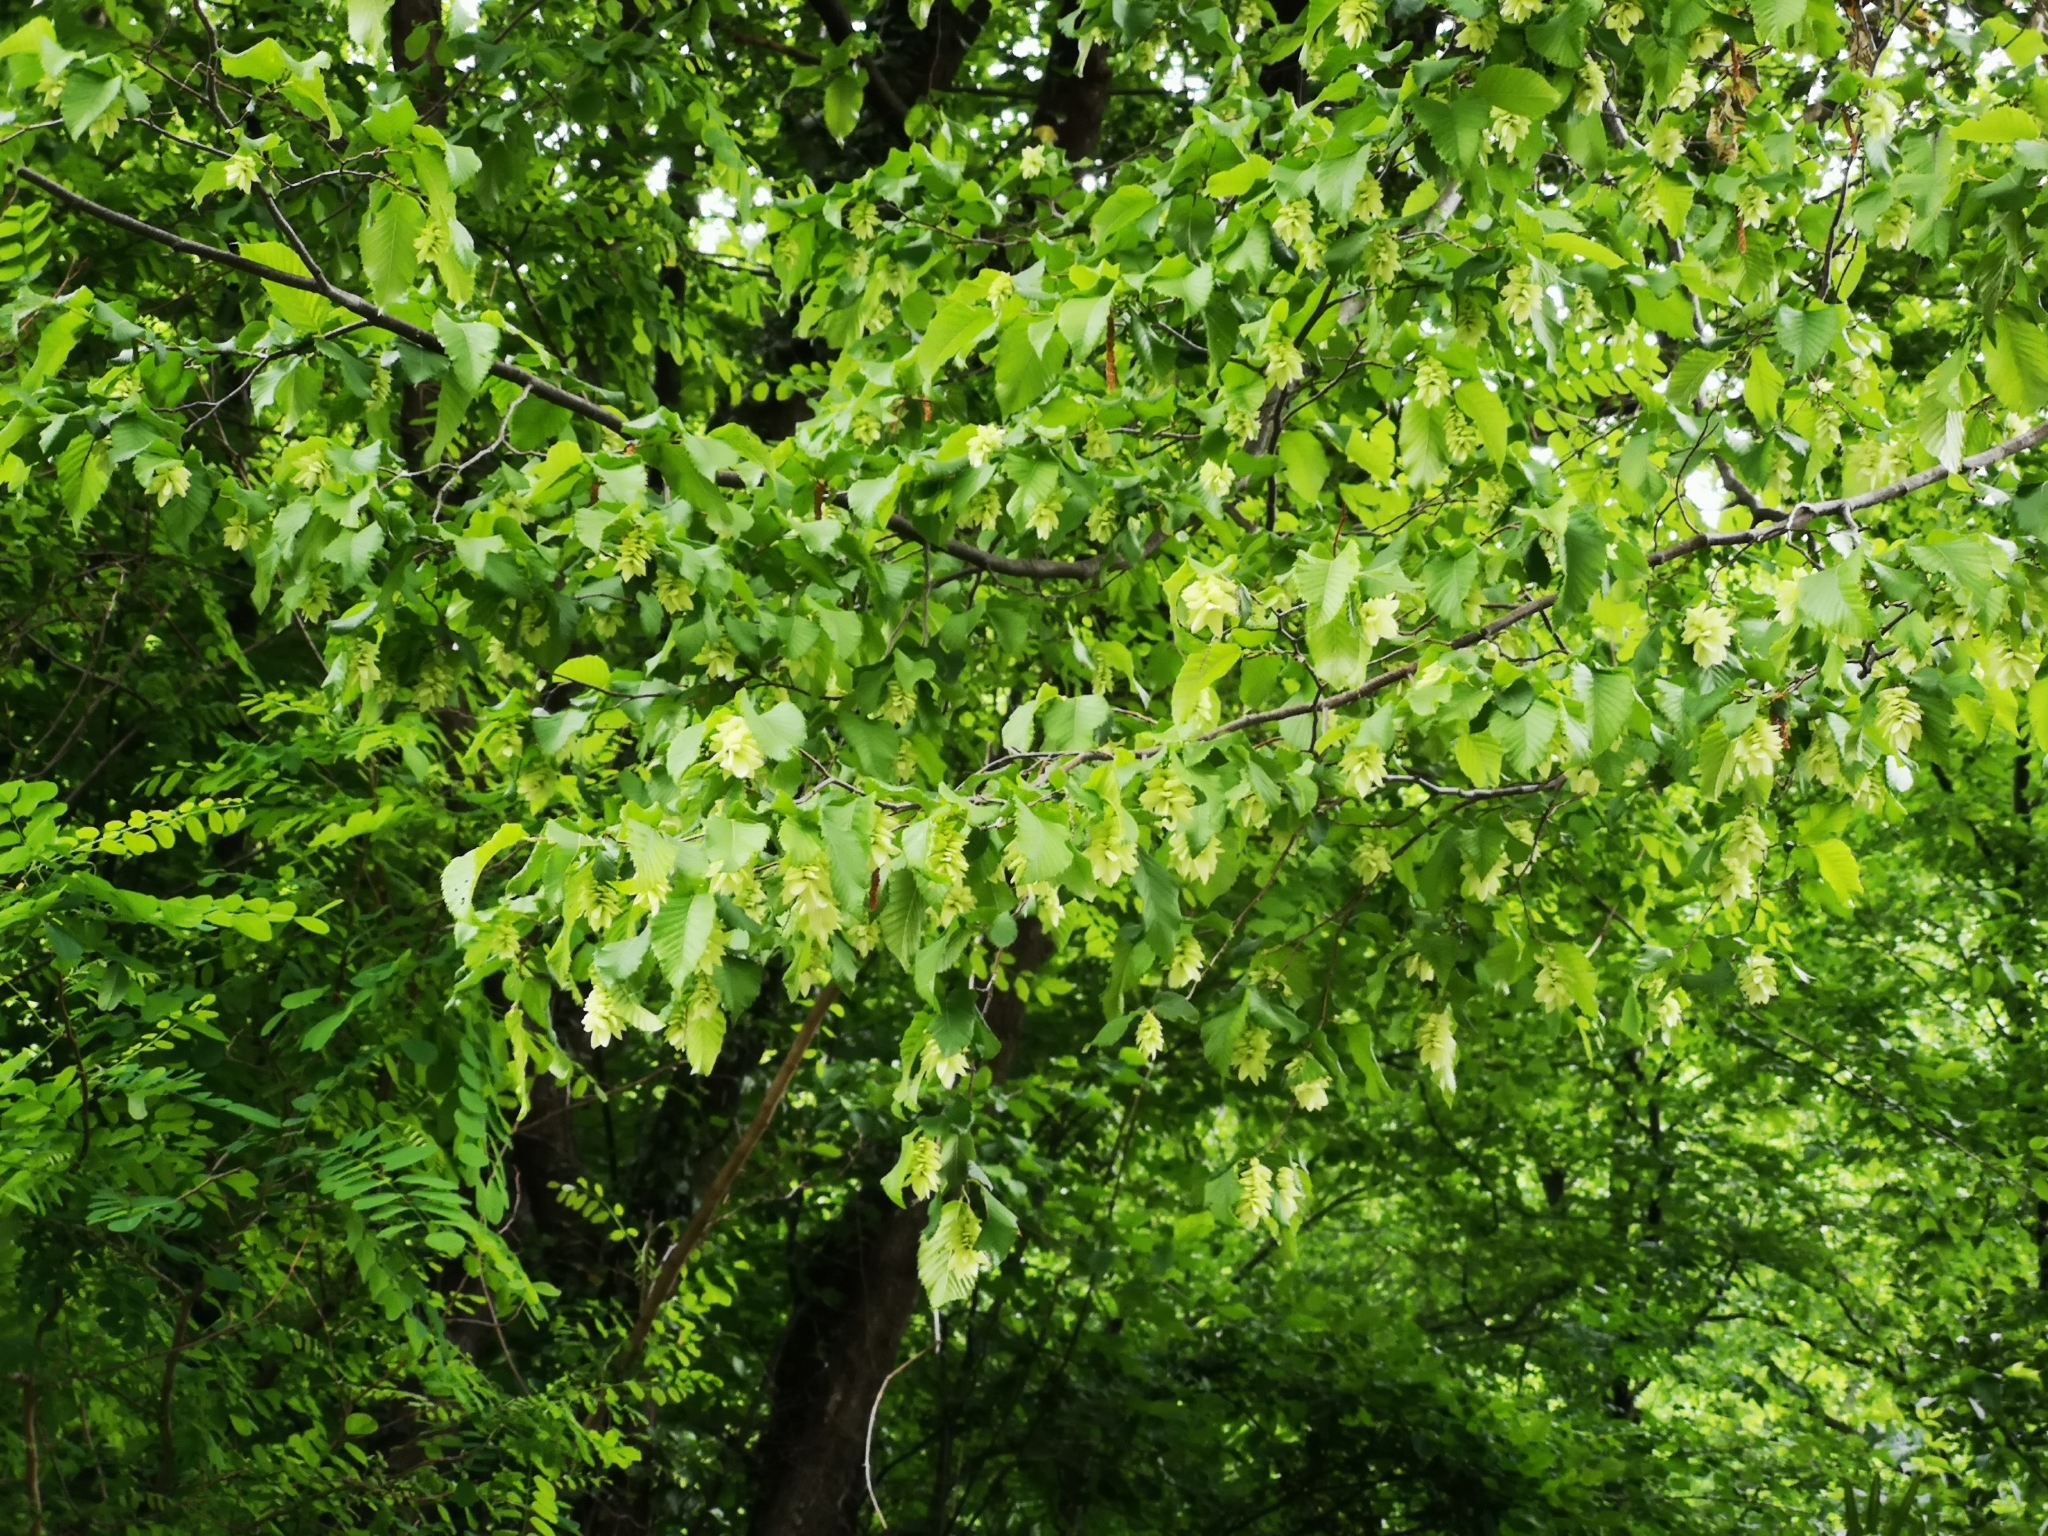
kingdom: Plantae
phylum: Tracheophyta
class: Magnoliopsida
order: Fagales
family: Betulaceae
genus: Ostrya
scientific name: Ostrya carpinifolia
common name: European hop-hornbeam
